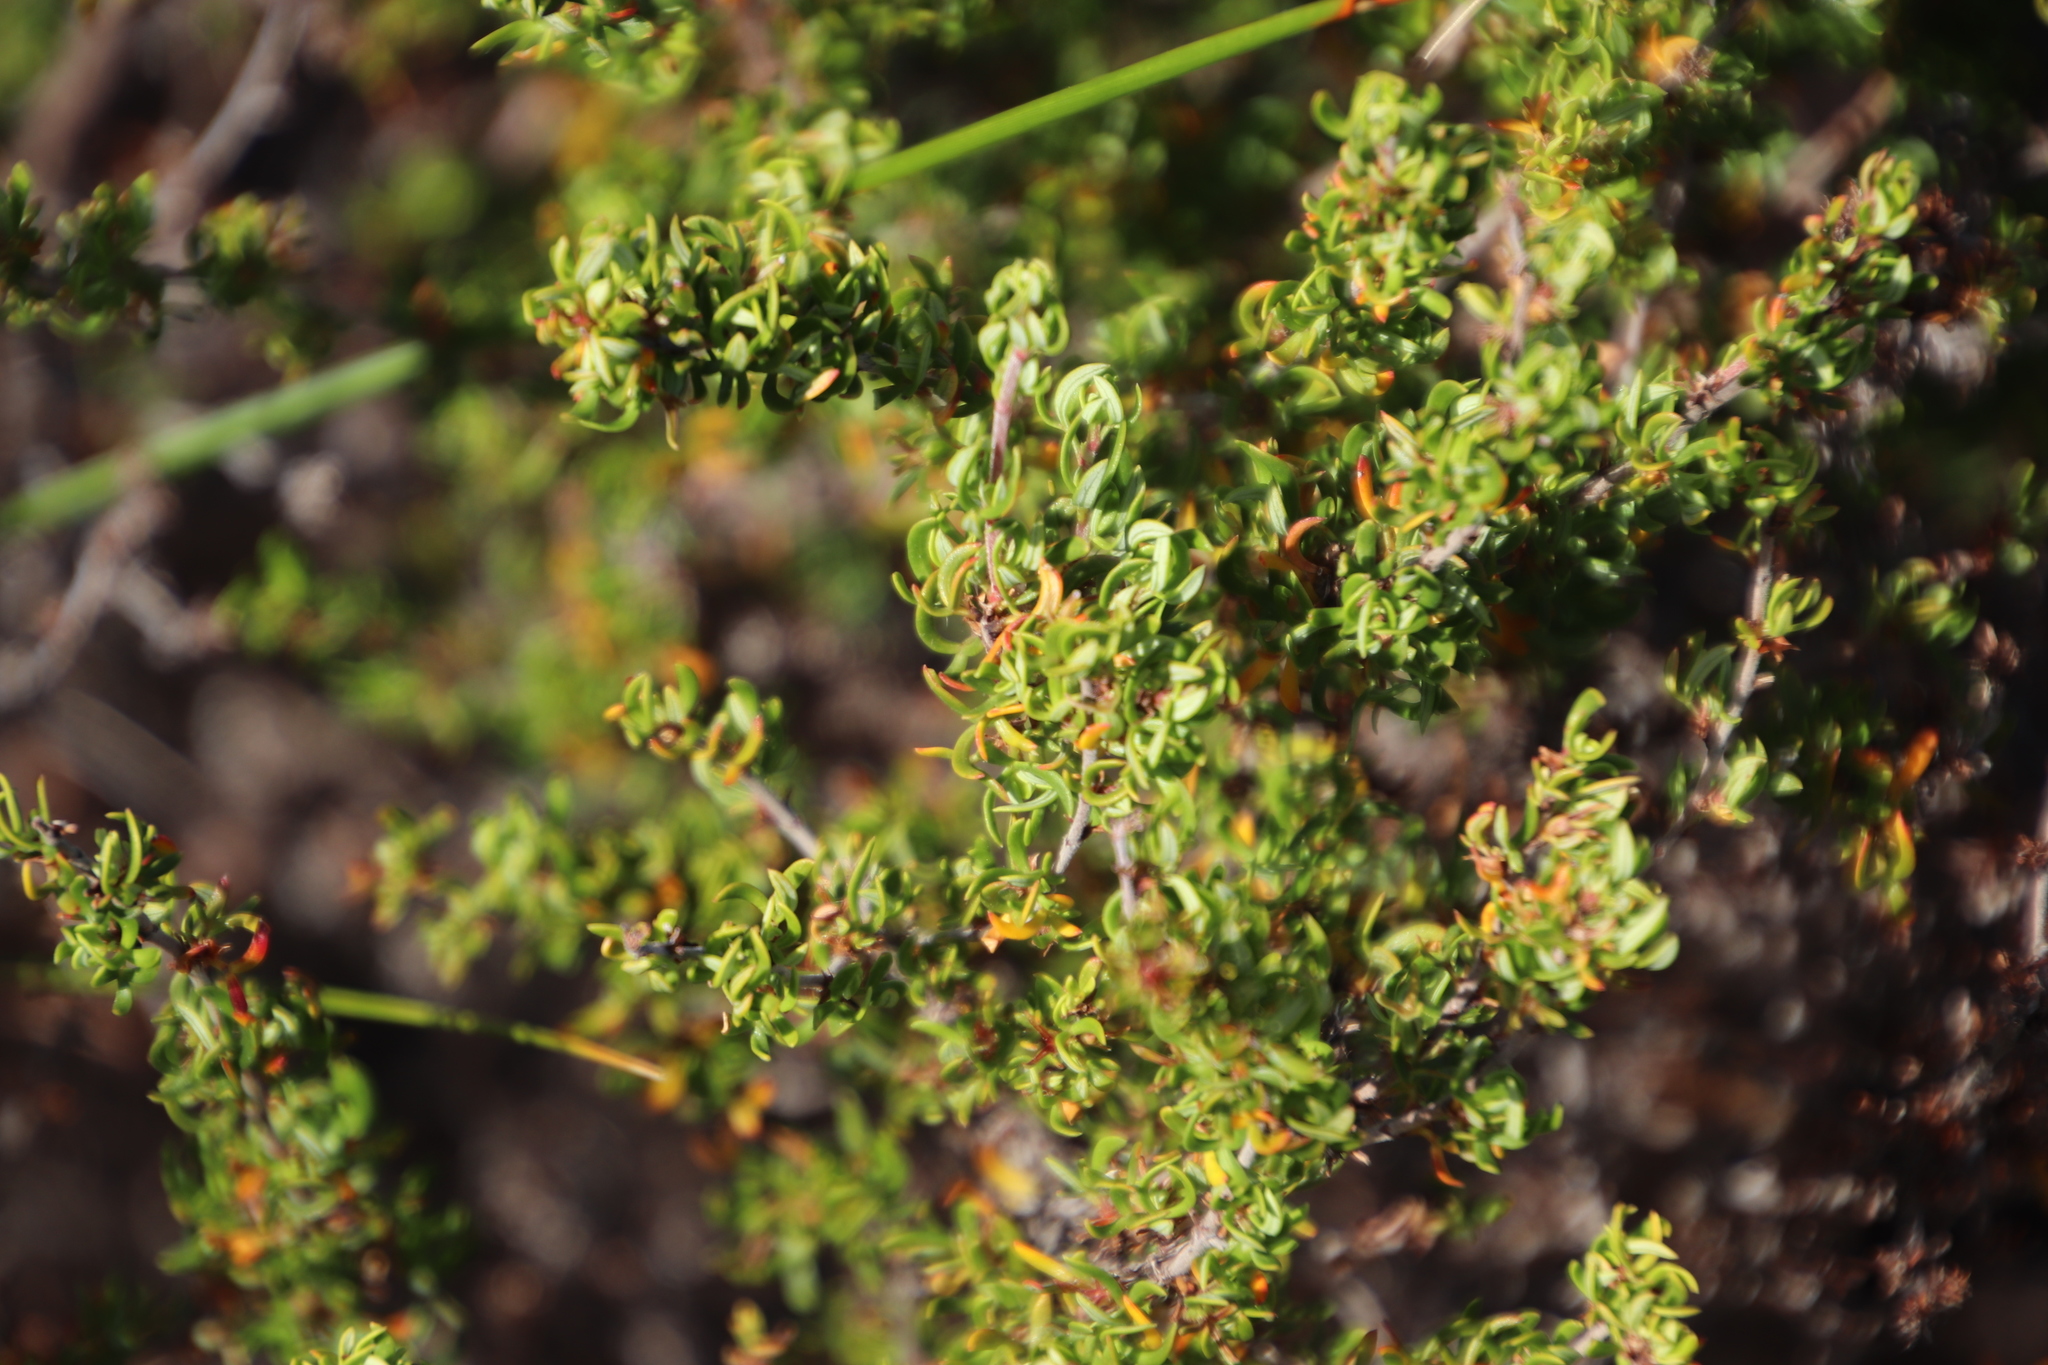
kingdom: Plantae
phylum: Tracheophyta
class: Magnoliopsida
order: Rosales
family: Rosaceae
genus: Cliffortia
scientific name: Cliffortia falcata
